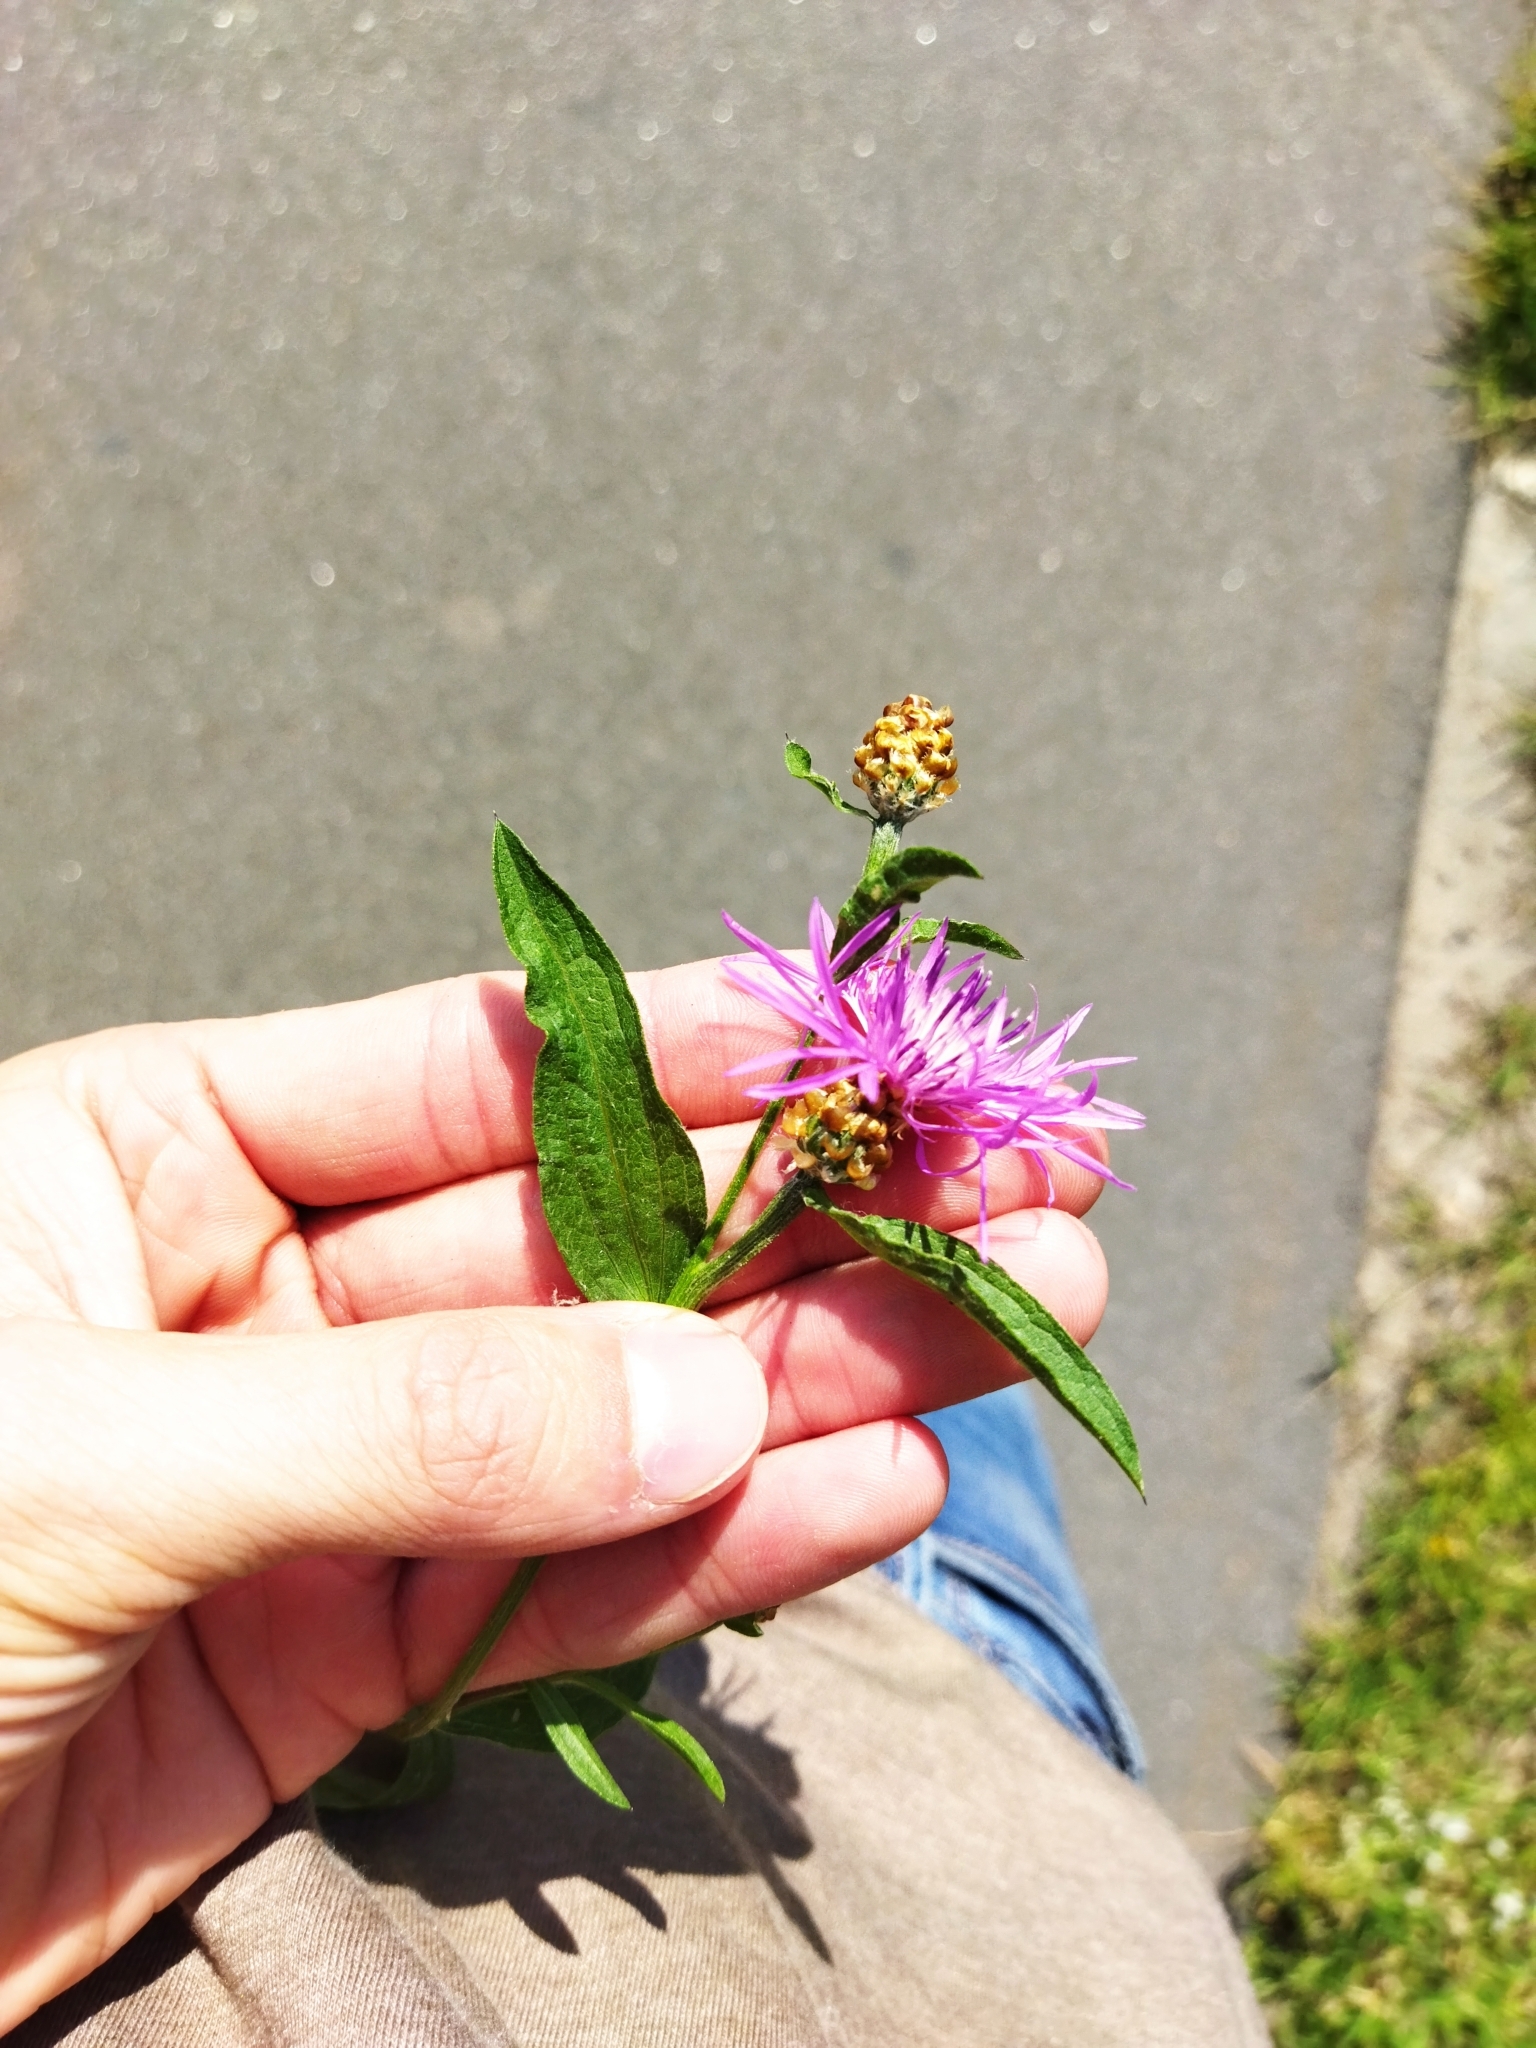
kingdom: Plantae
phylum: Tracheophyta
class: Magnoliopsida
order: Asterales
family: Asteraceae
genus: Centaurea
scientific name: Centaurea jacea
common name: Brown knapweed
